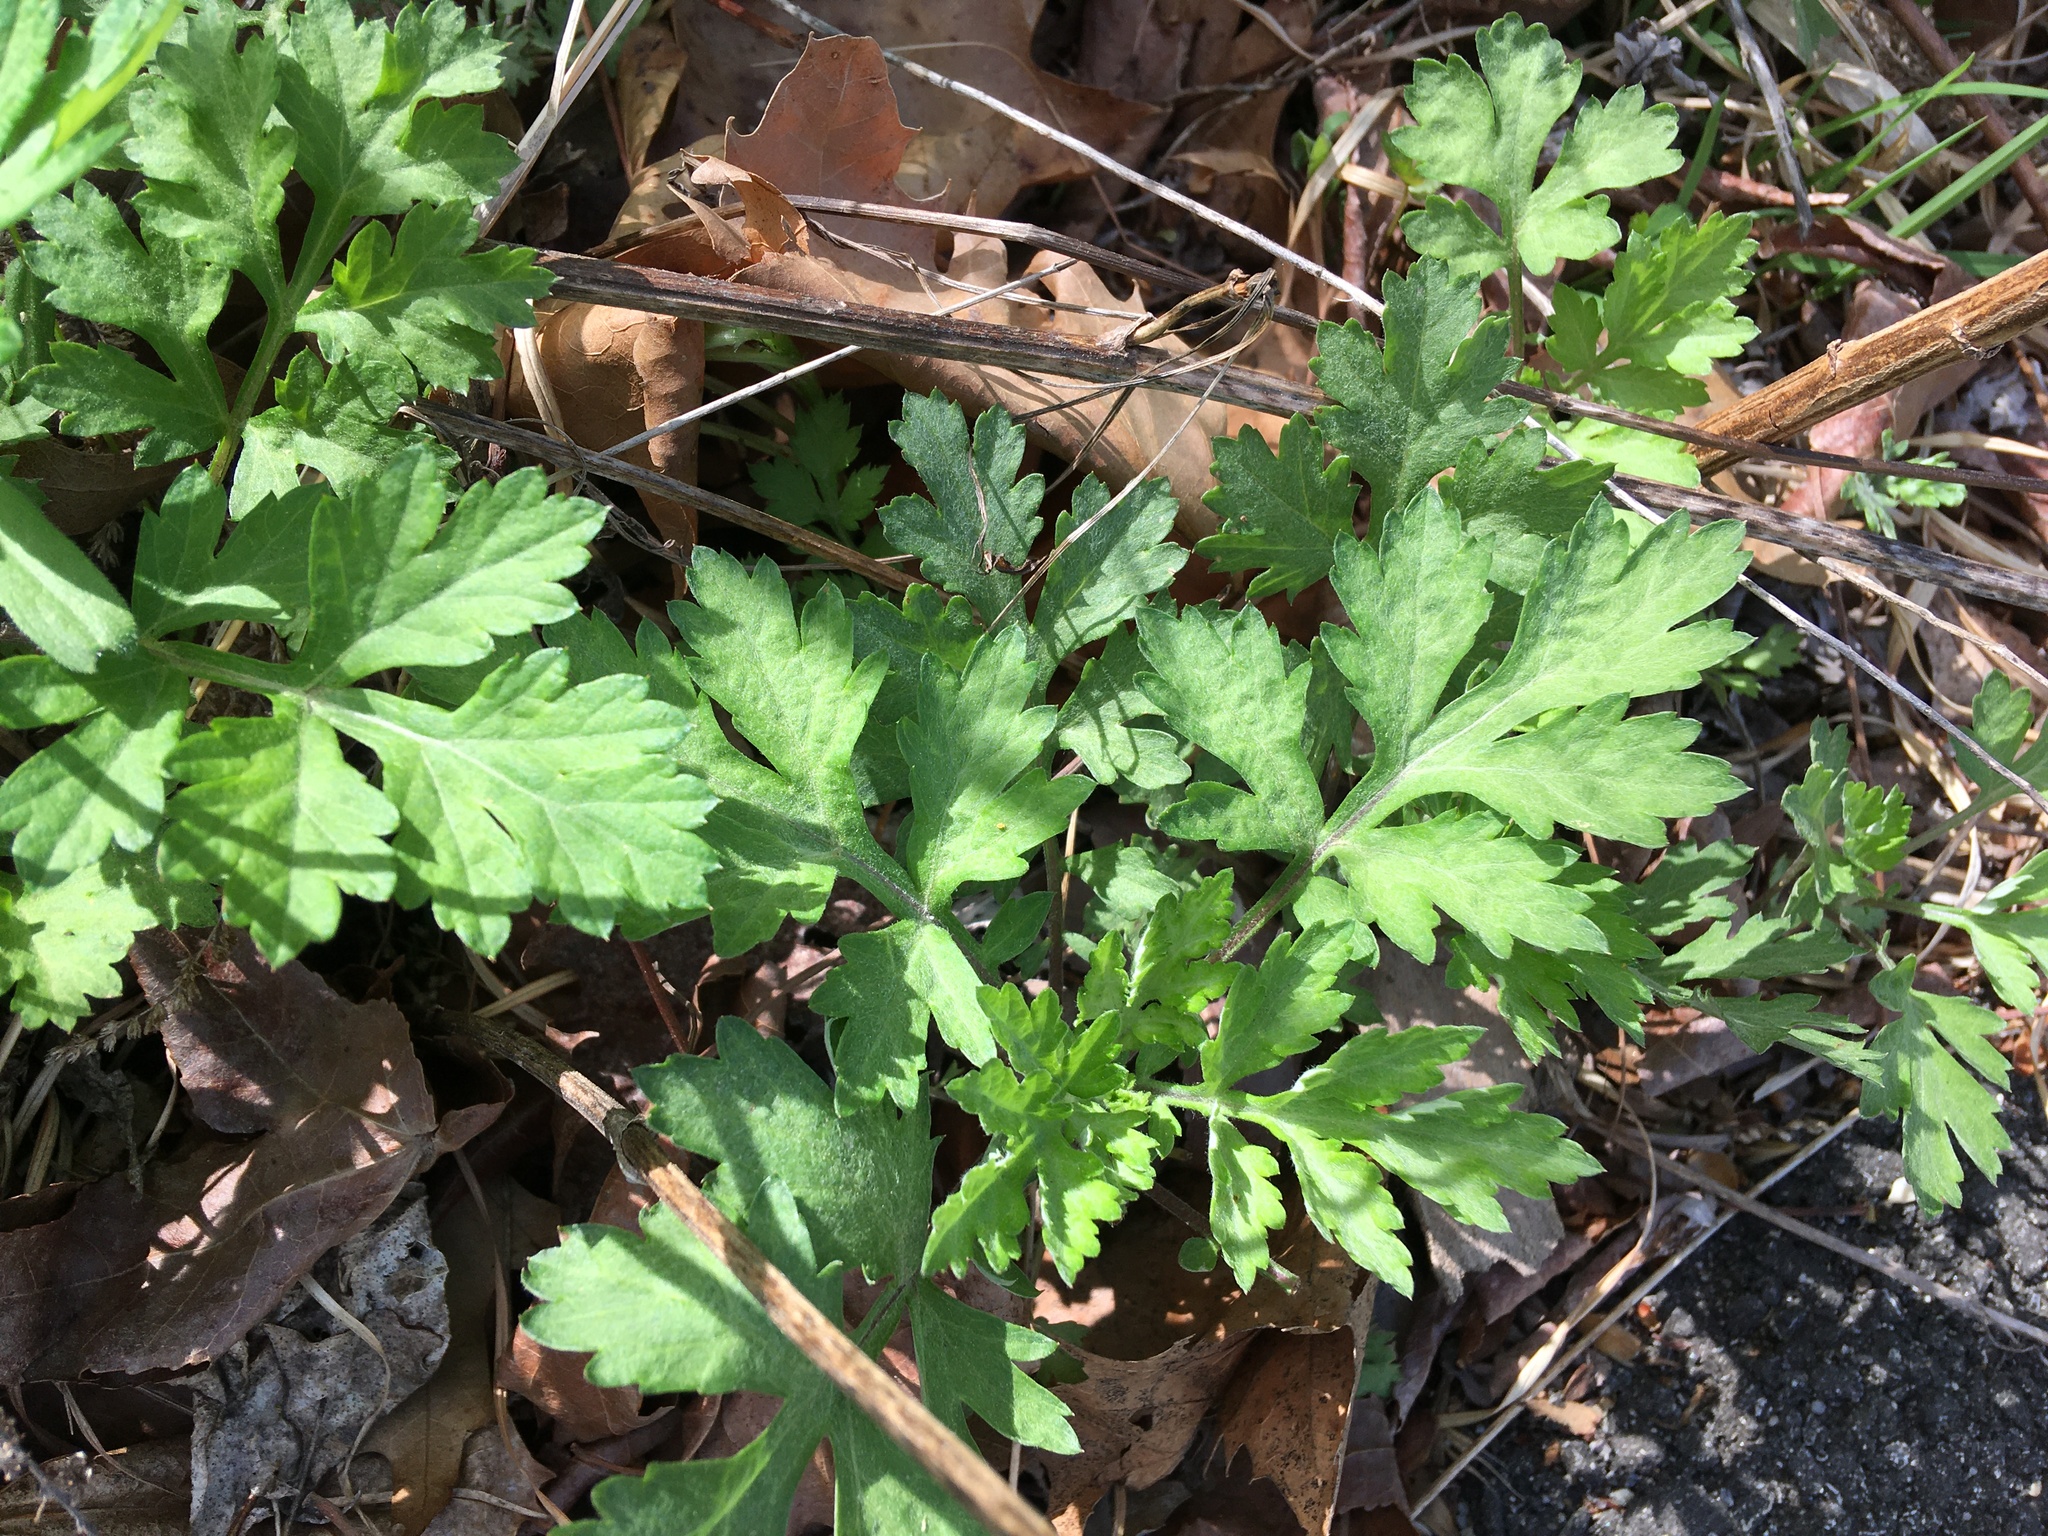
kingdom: Plantae
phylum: Tracheophyta
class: Magnoliopsida
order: Asterales
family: Asteraceae
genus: Artemisia
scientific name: Artemisia vulgaris
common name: Mugwort
